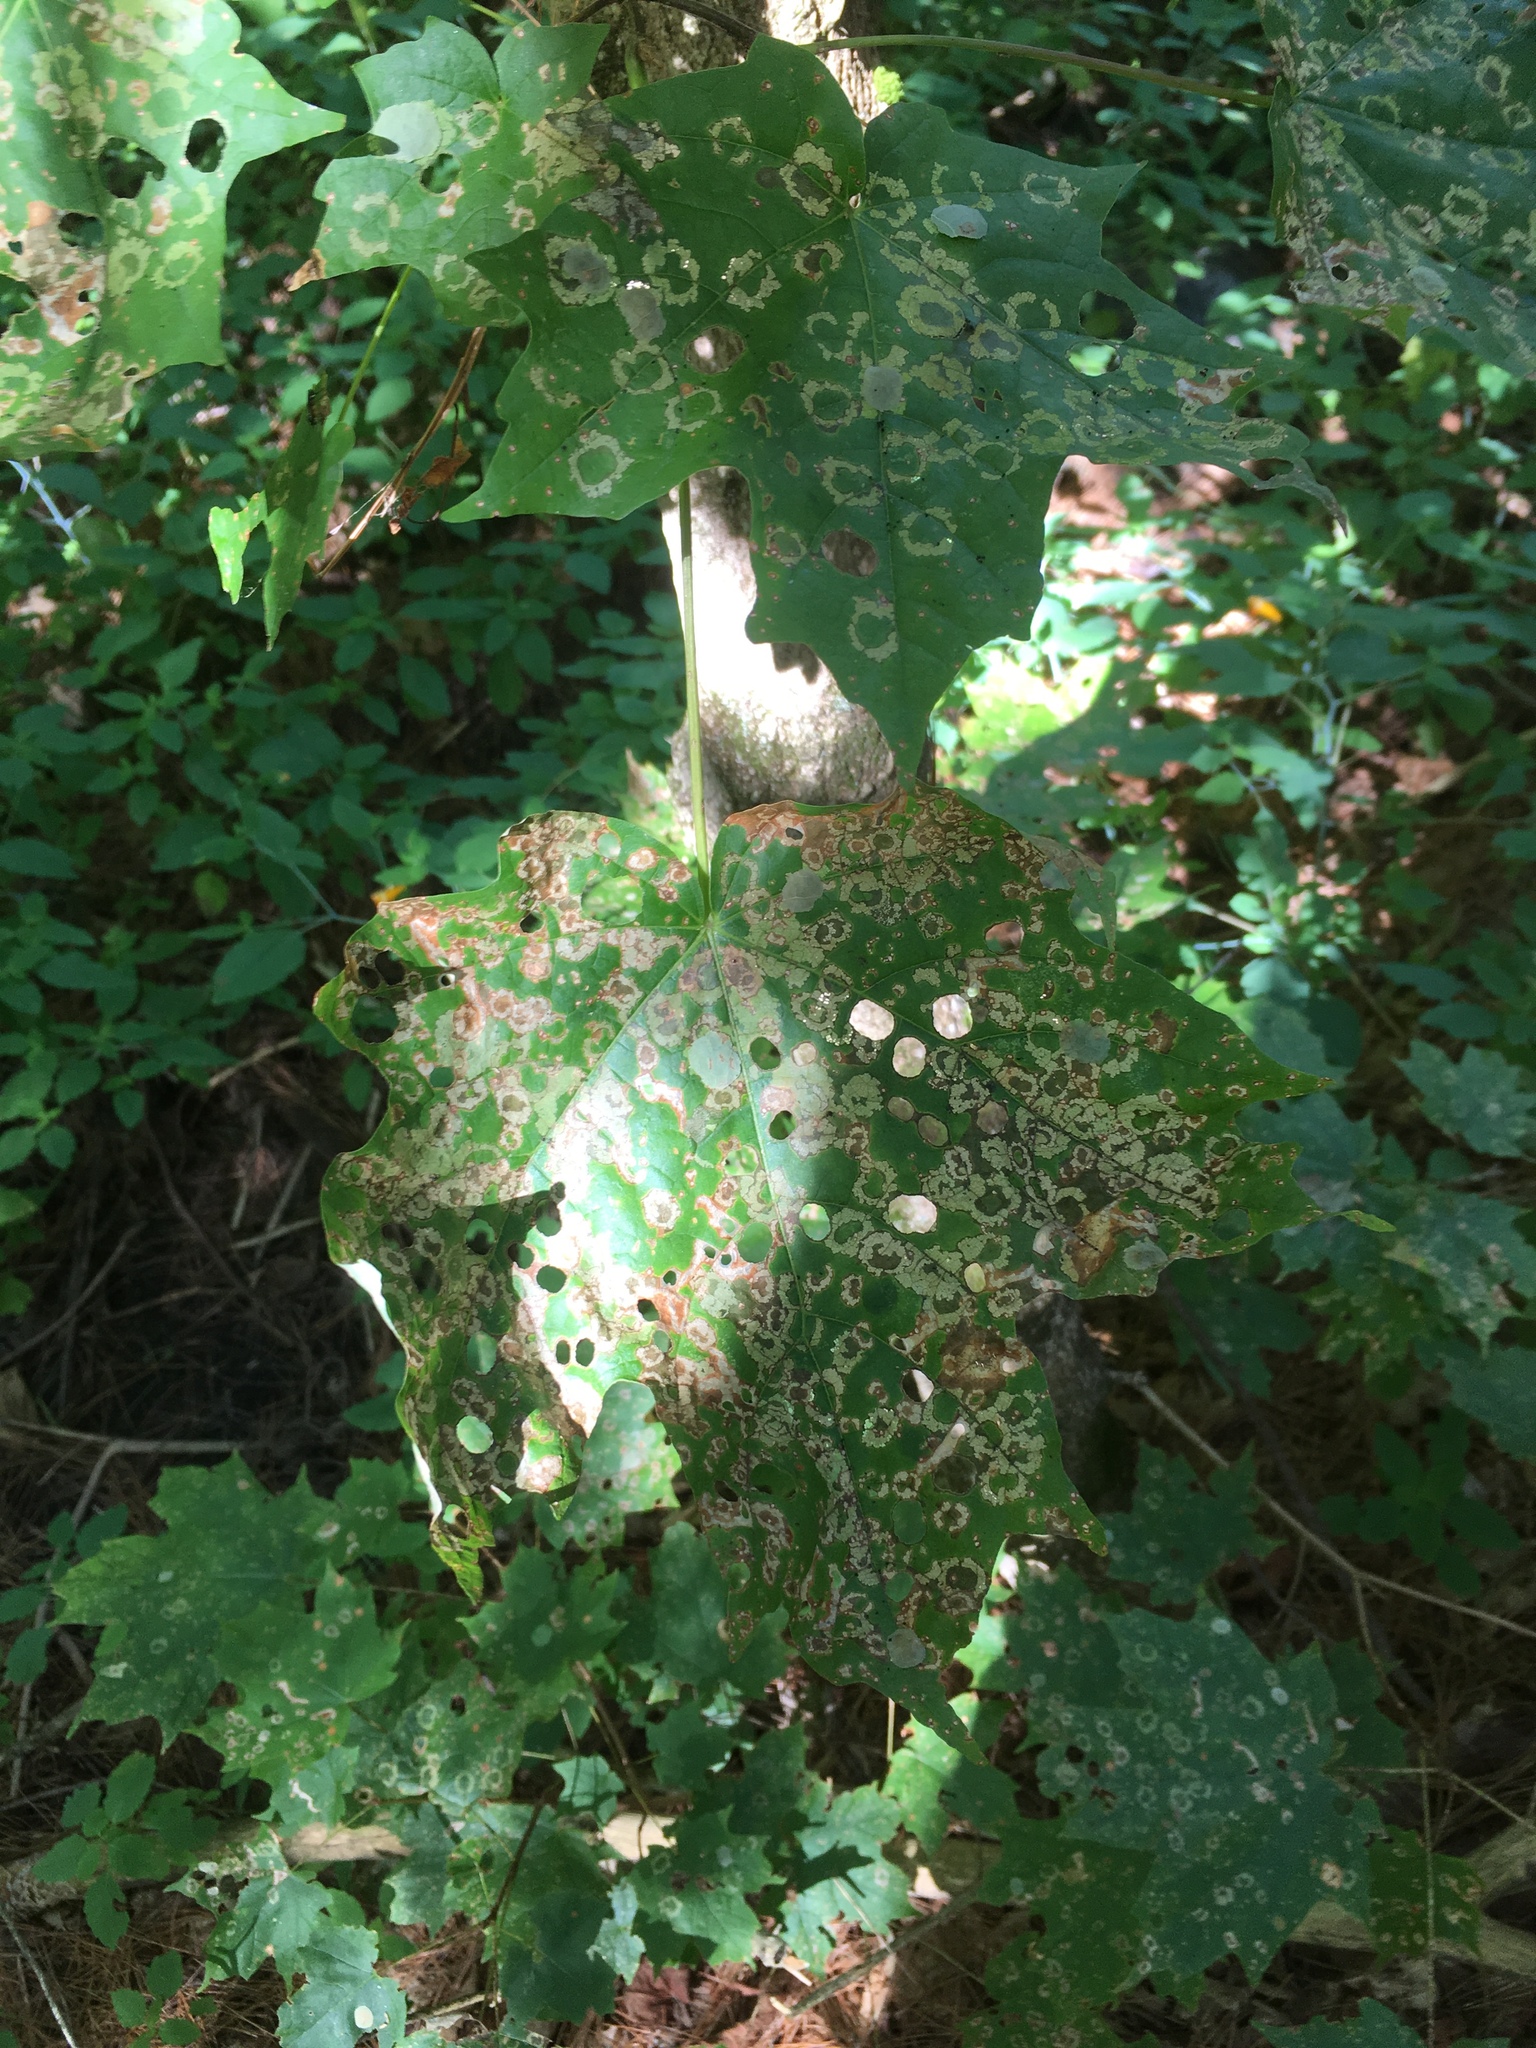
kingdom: Animalia
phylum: Arthropoda
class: Insecta
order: Lepidoptera
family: Incurvariidae
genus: Paraclemensia
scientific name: Paraclemensia acerifoliella
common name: Maple leafcutter
